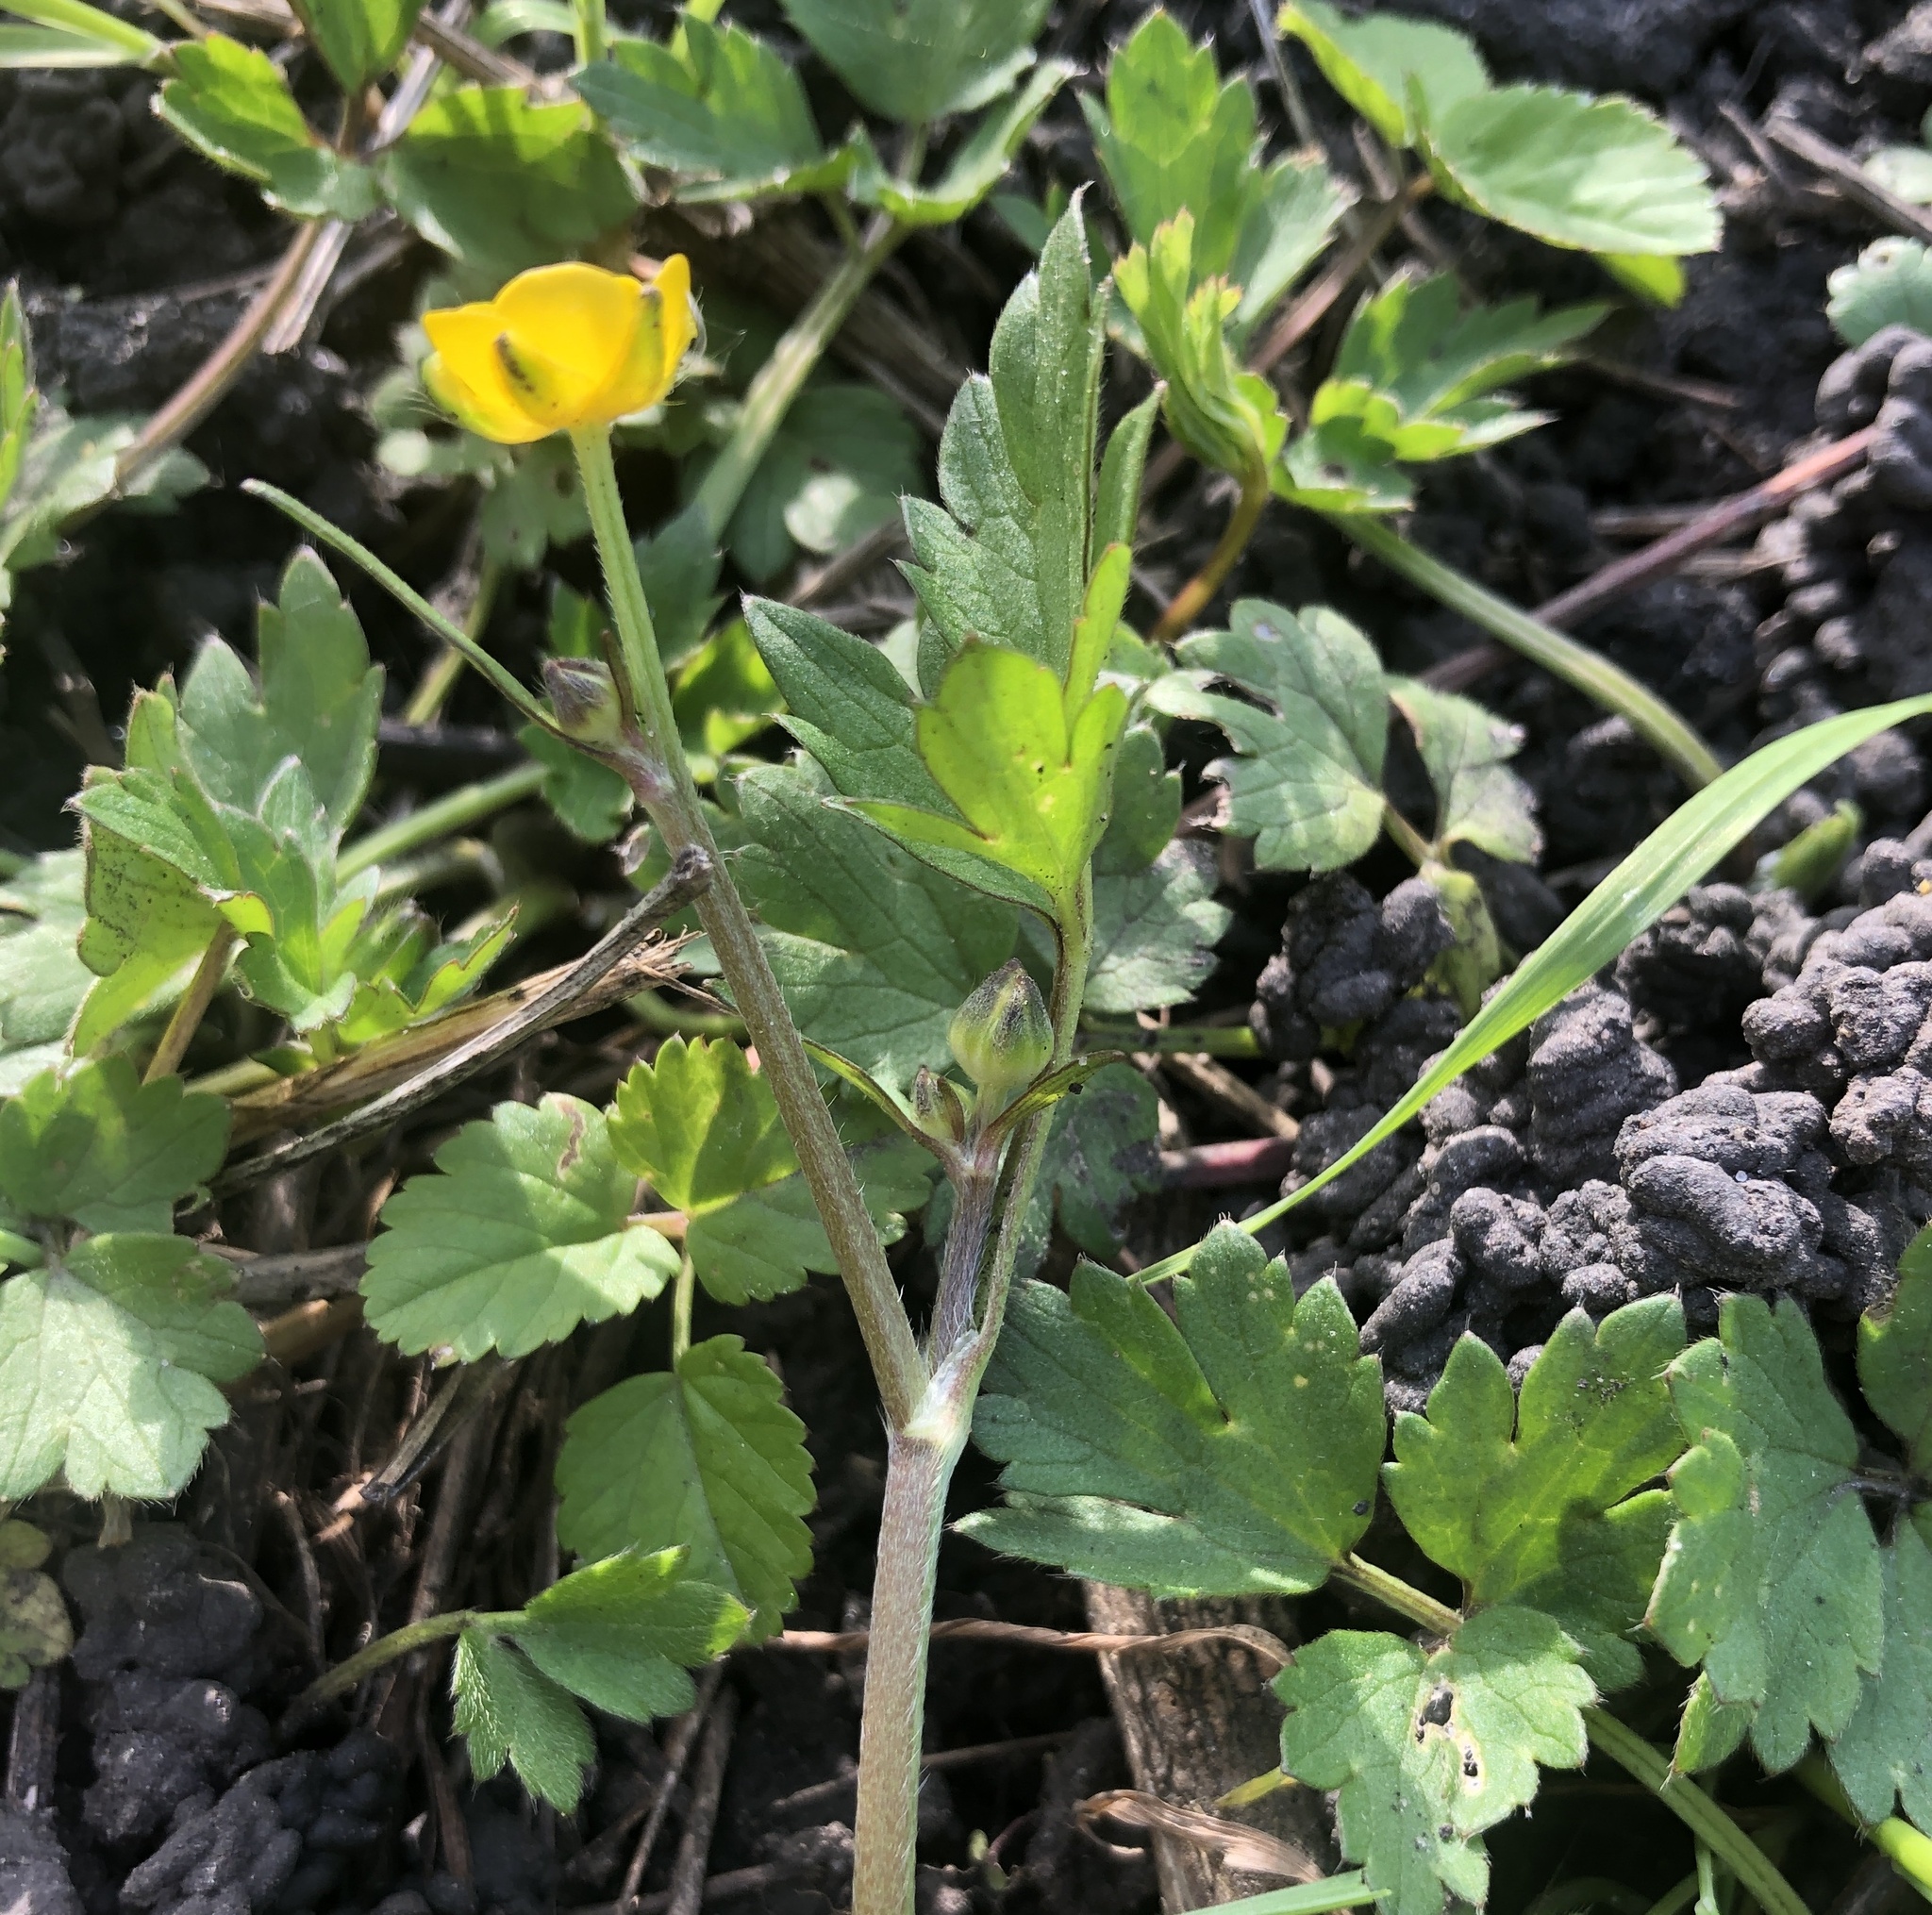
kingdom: Plantae
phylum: Tracheophyta
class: Magnoliopsida
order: Ranunculales
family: Ranunculaceae
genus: Ranunculus
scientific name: Ranunculus repens
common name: Creeping buttercup
